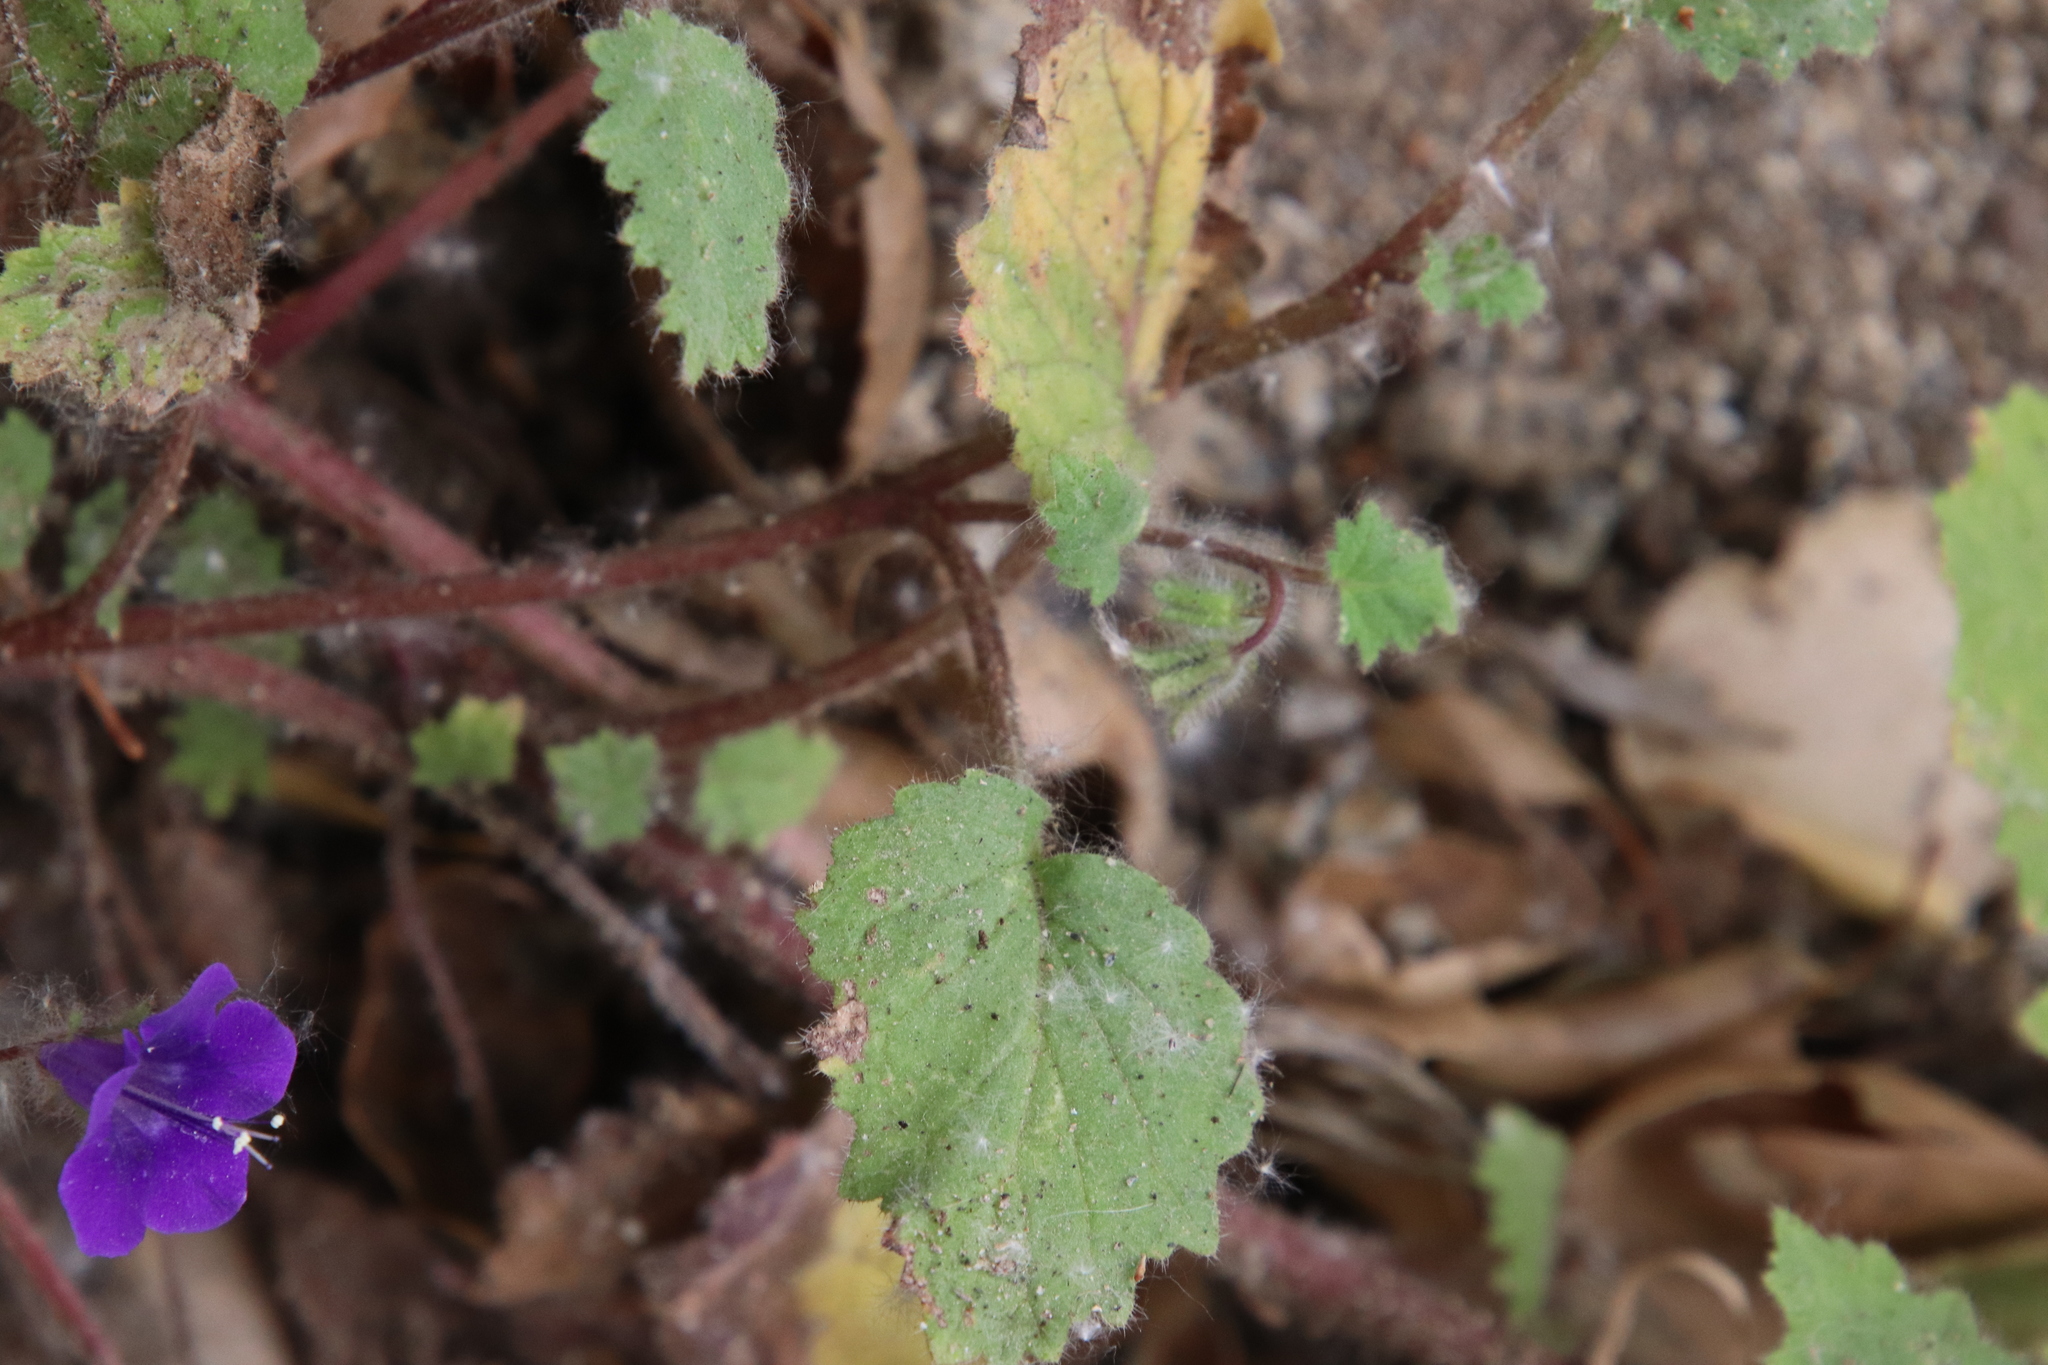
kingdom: Plantae
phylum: Tracheophyta
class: Magnoliopsida
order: Boraginales
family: Hydrophyllaceae
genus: Phacelia
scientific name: Phacelia minor
